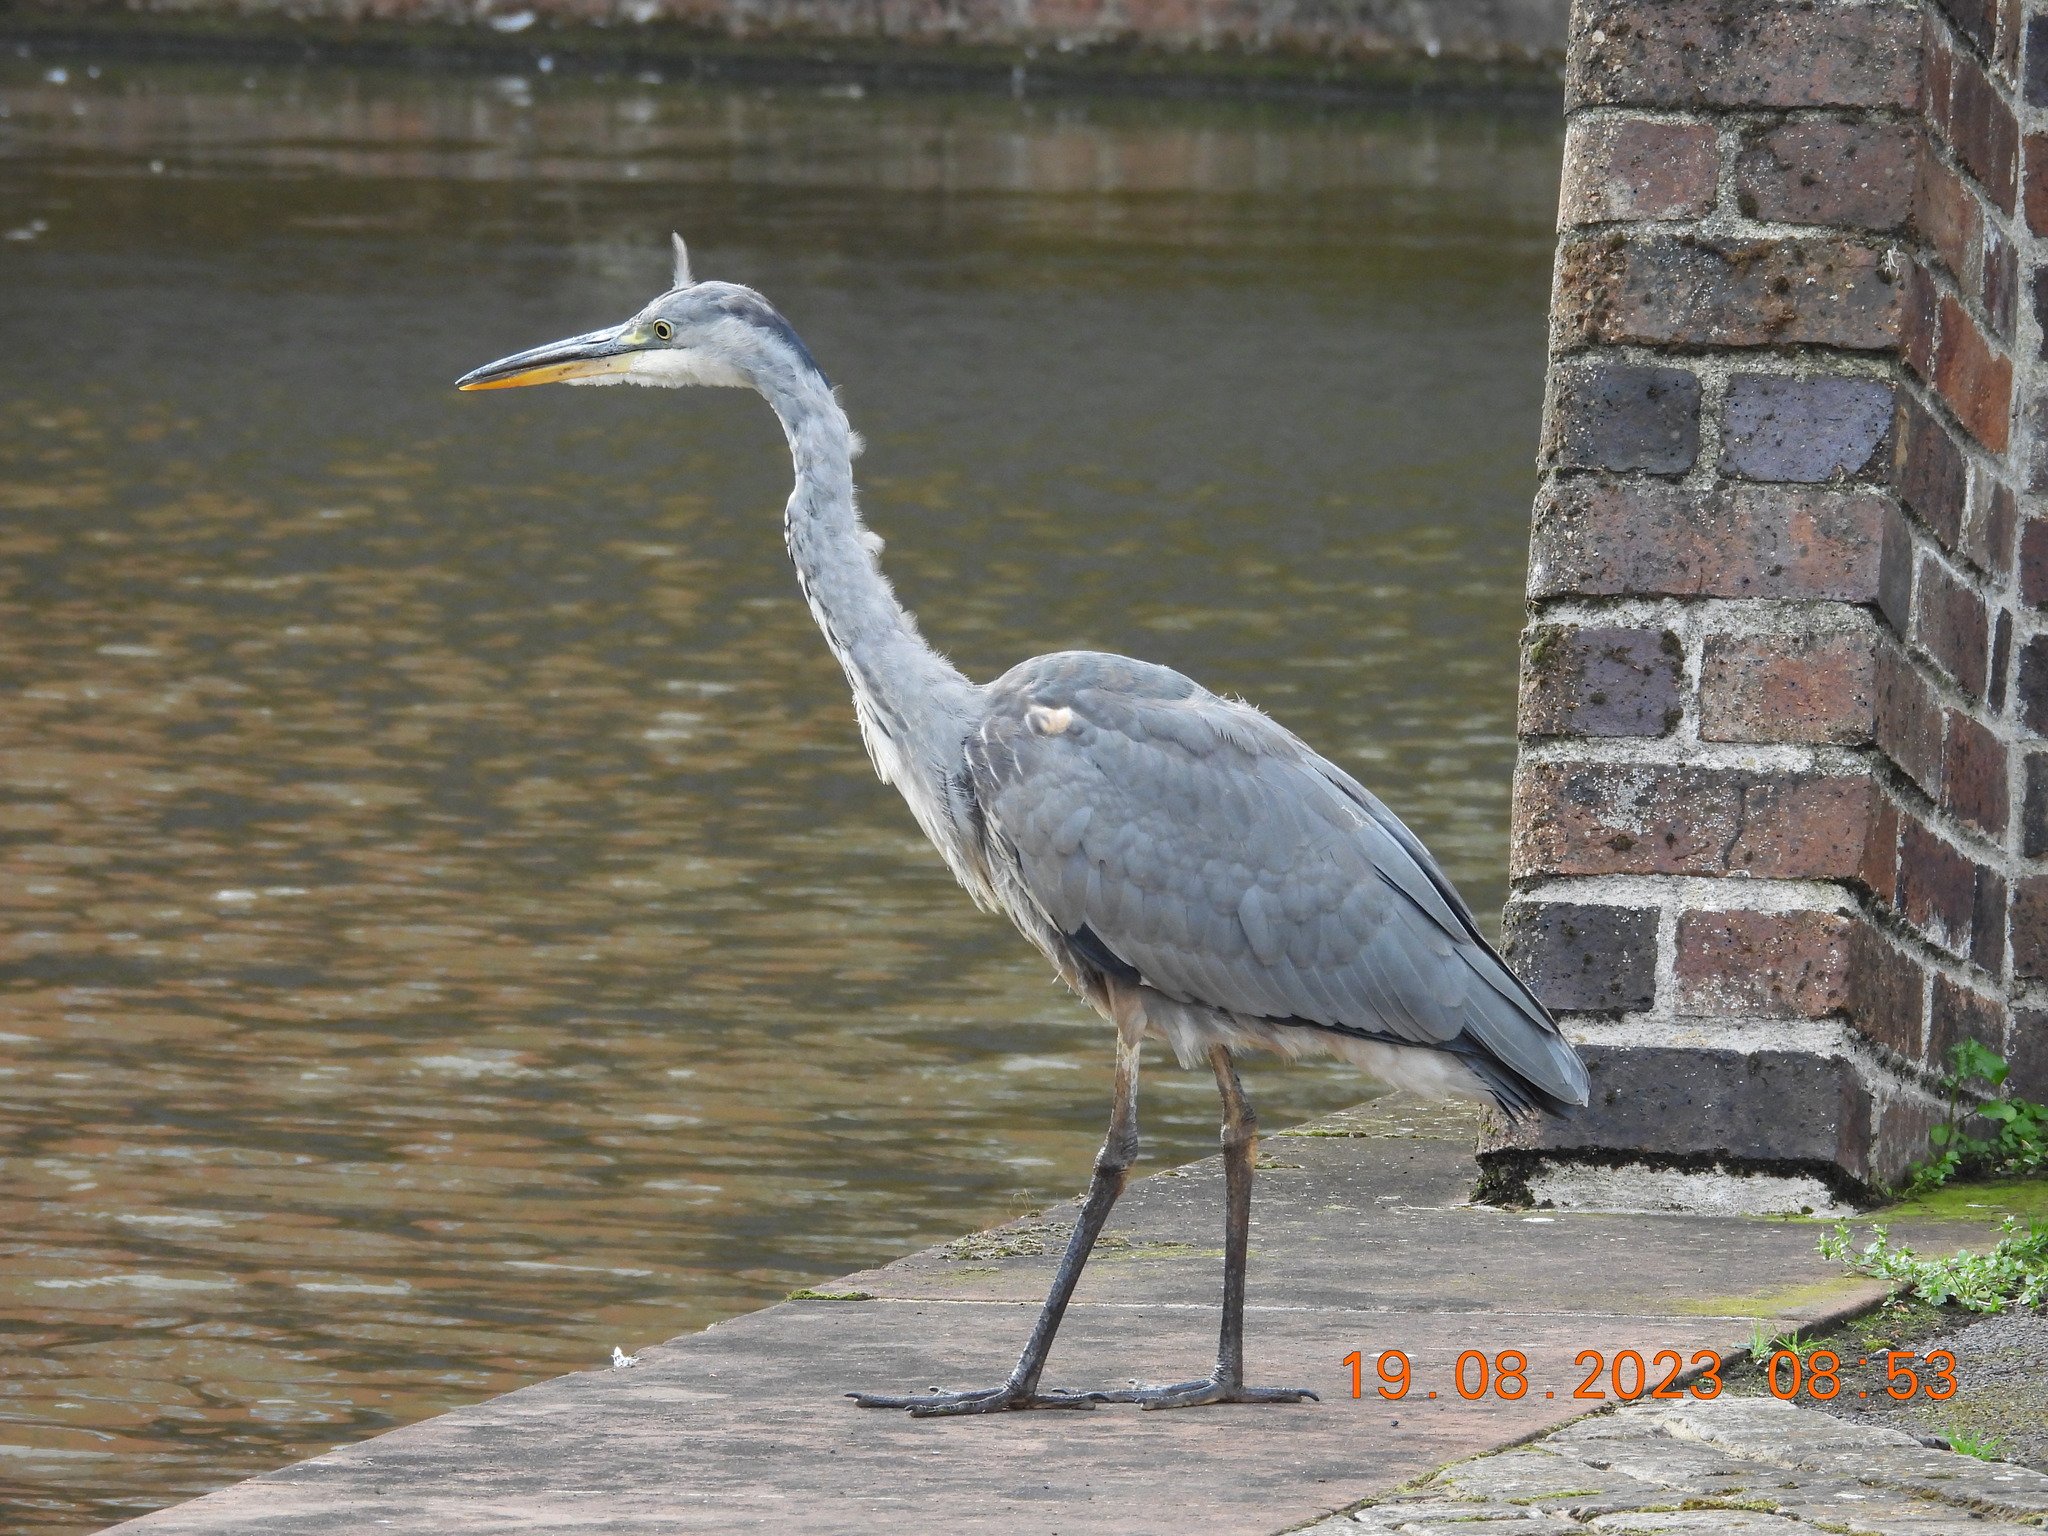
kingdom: Animalia
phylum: Chordata
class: Aves
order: Pelecaniformes
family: Ardeidae
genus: Ardea
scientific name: Ardea cinerea
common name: Grey heron
